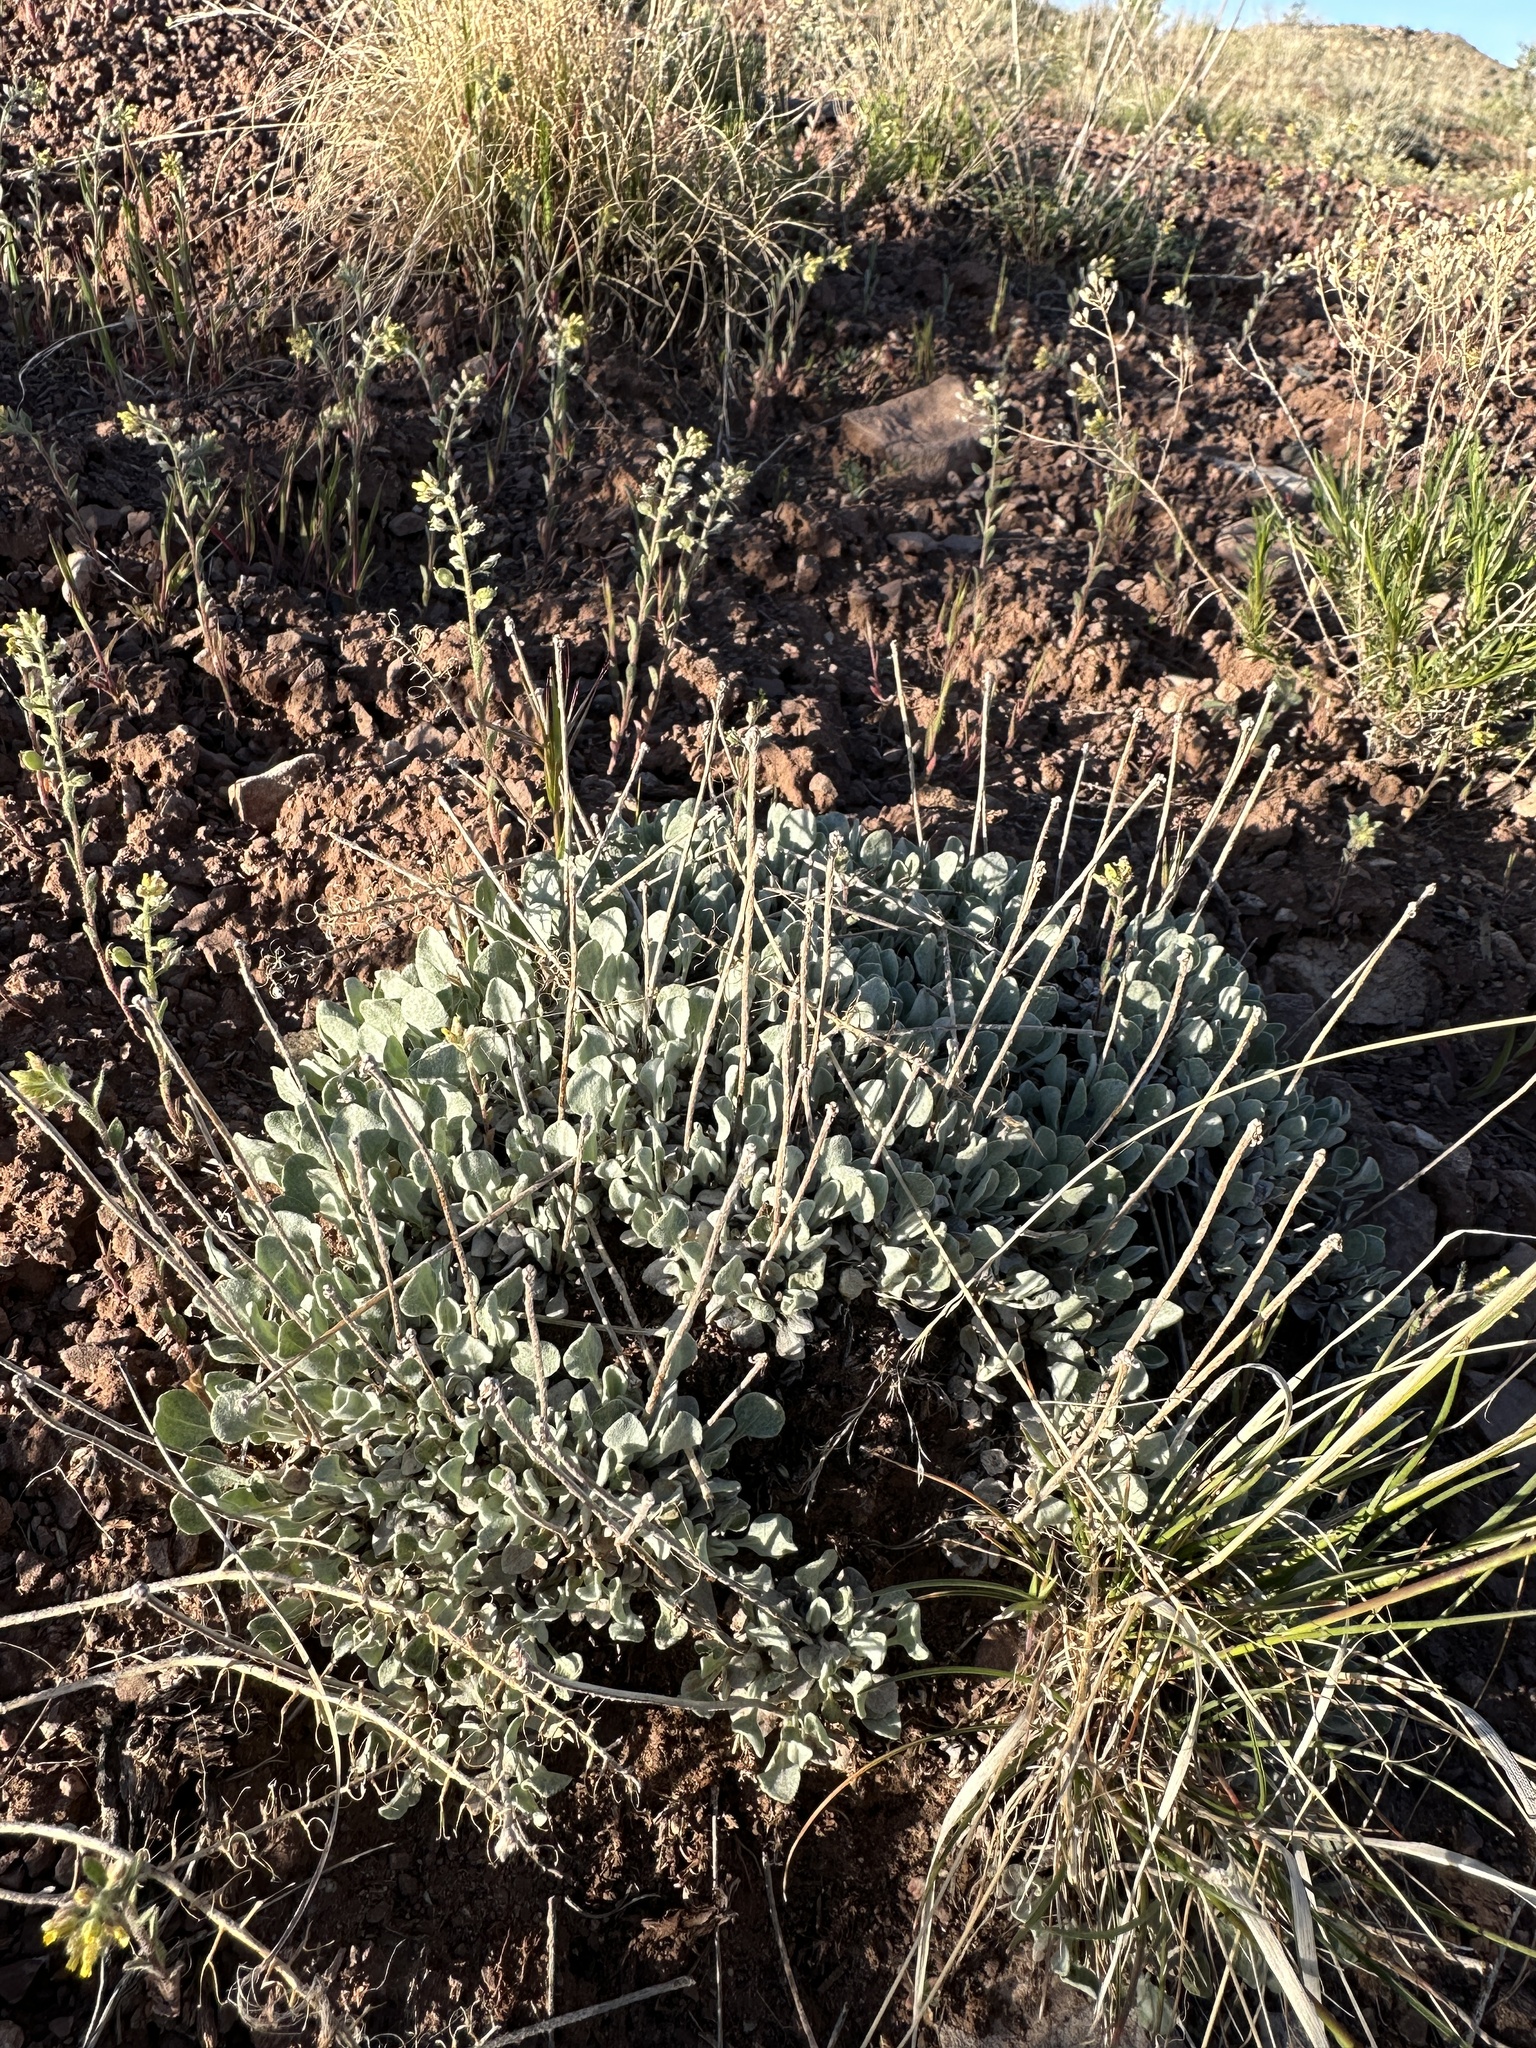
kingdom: Plantae
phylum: Tracheophyta
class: Magnoliopsida
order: Caryophyllales
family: Polygonaceae
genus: Eriogonum
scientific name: Eriogonum ovalifolium
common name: Cushion buckwheat
